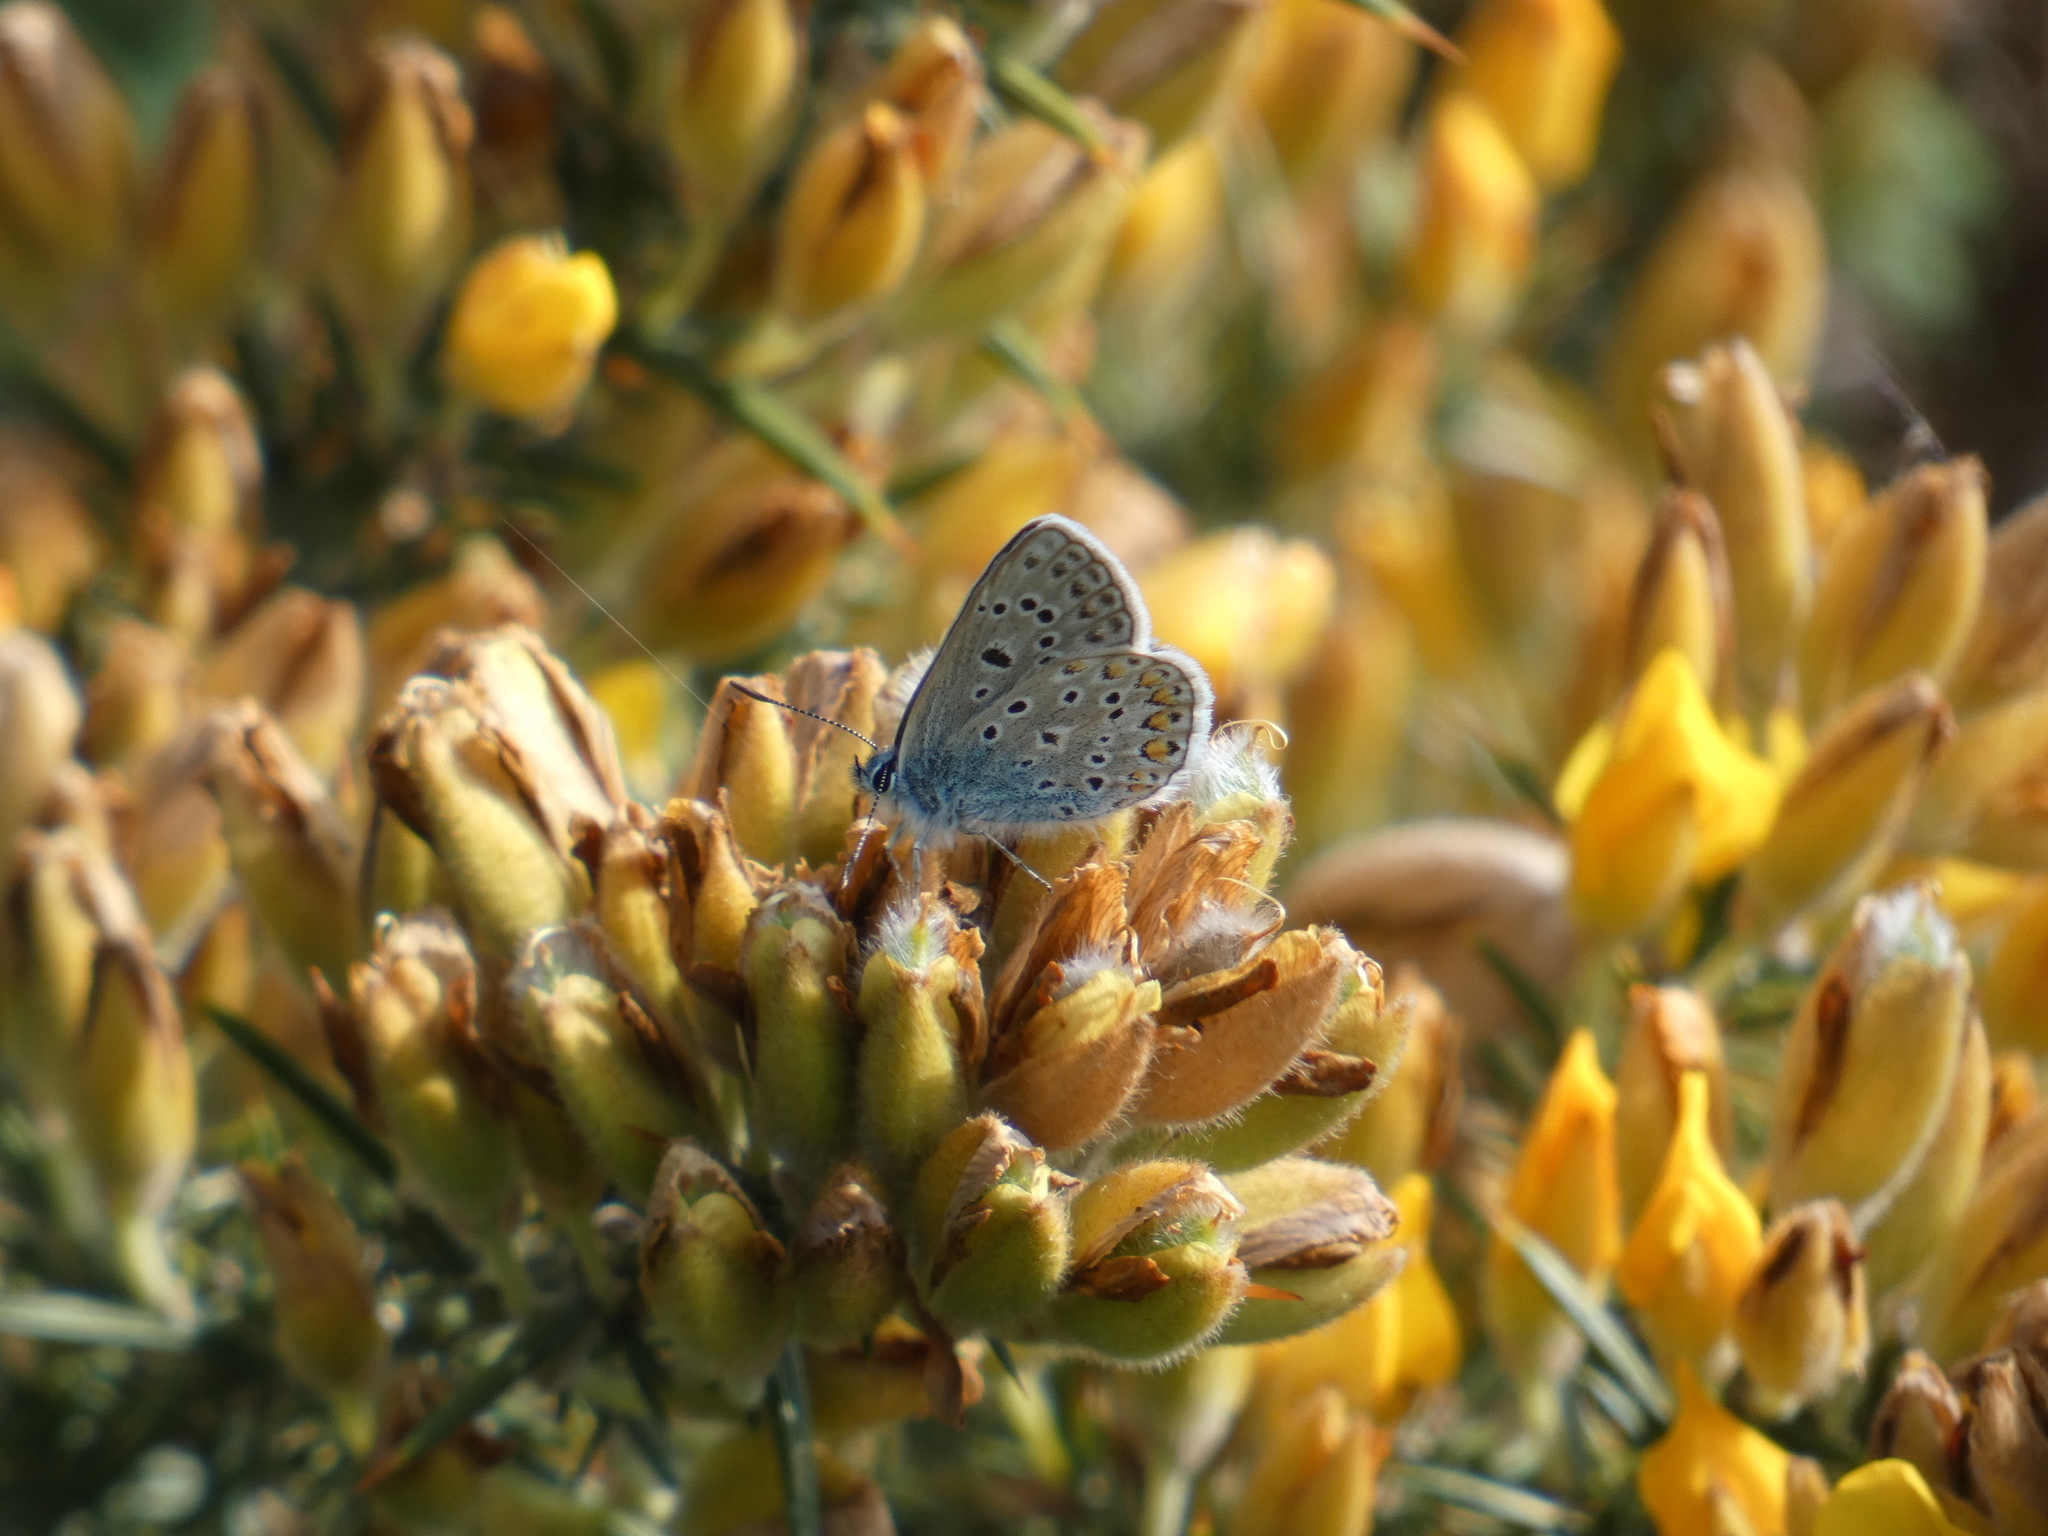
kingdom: Animalia
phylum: Arthropoda
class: Insecta
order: Lepidoptera
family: Lycaenidae
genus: Polyommatus
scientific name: Polyommatus icarus
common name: Common blue
